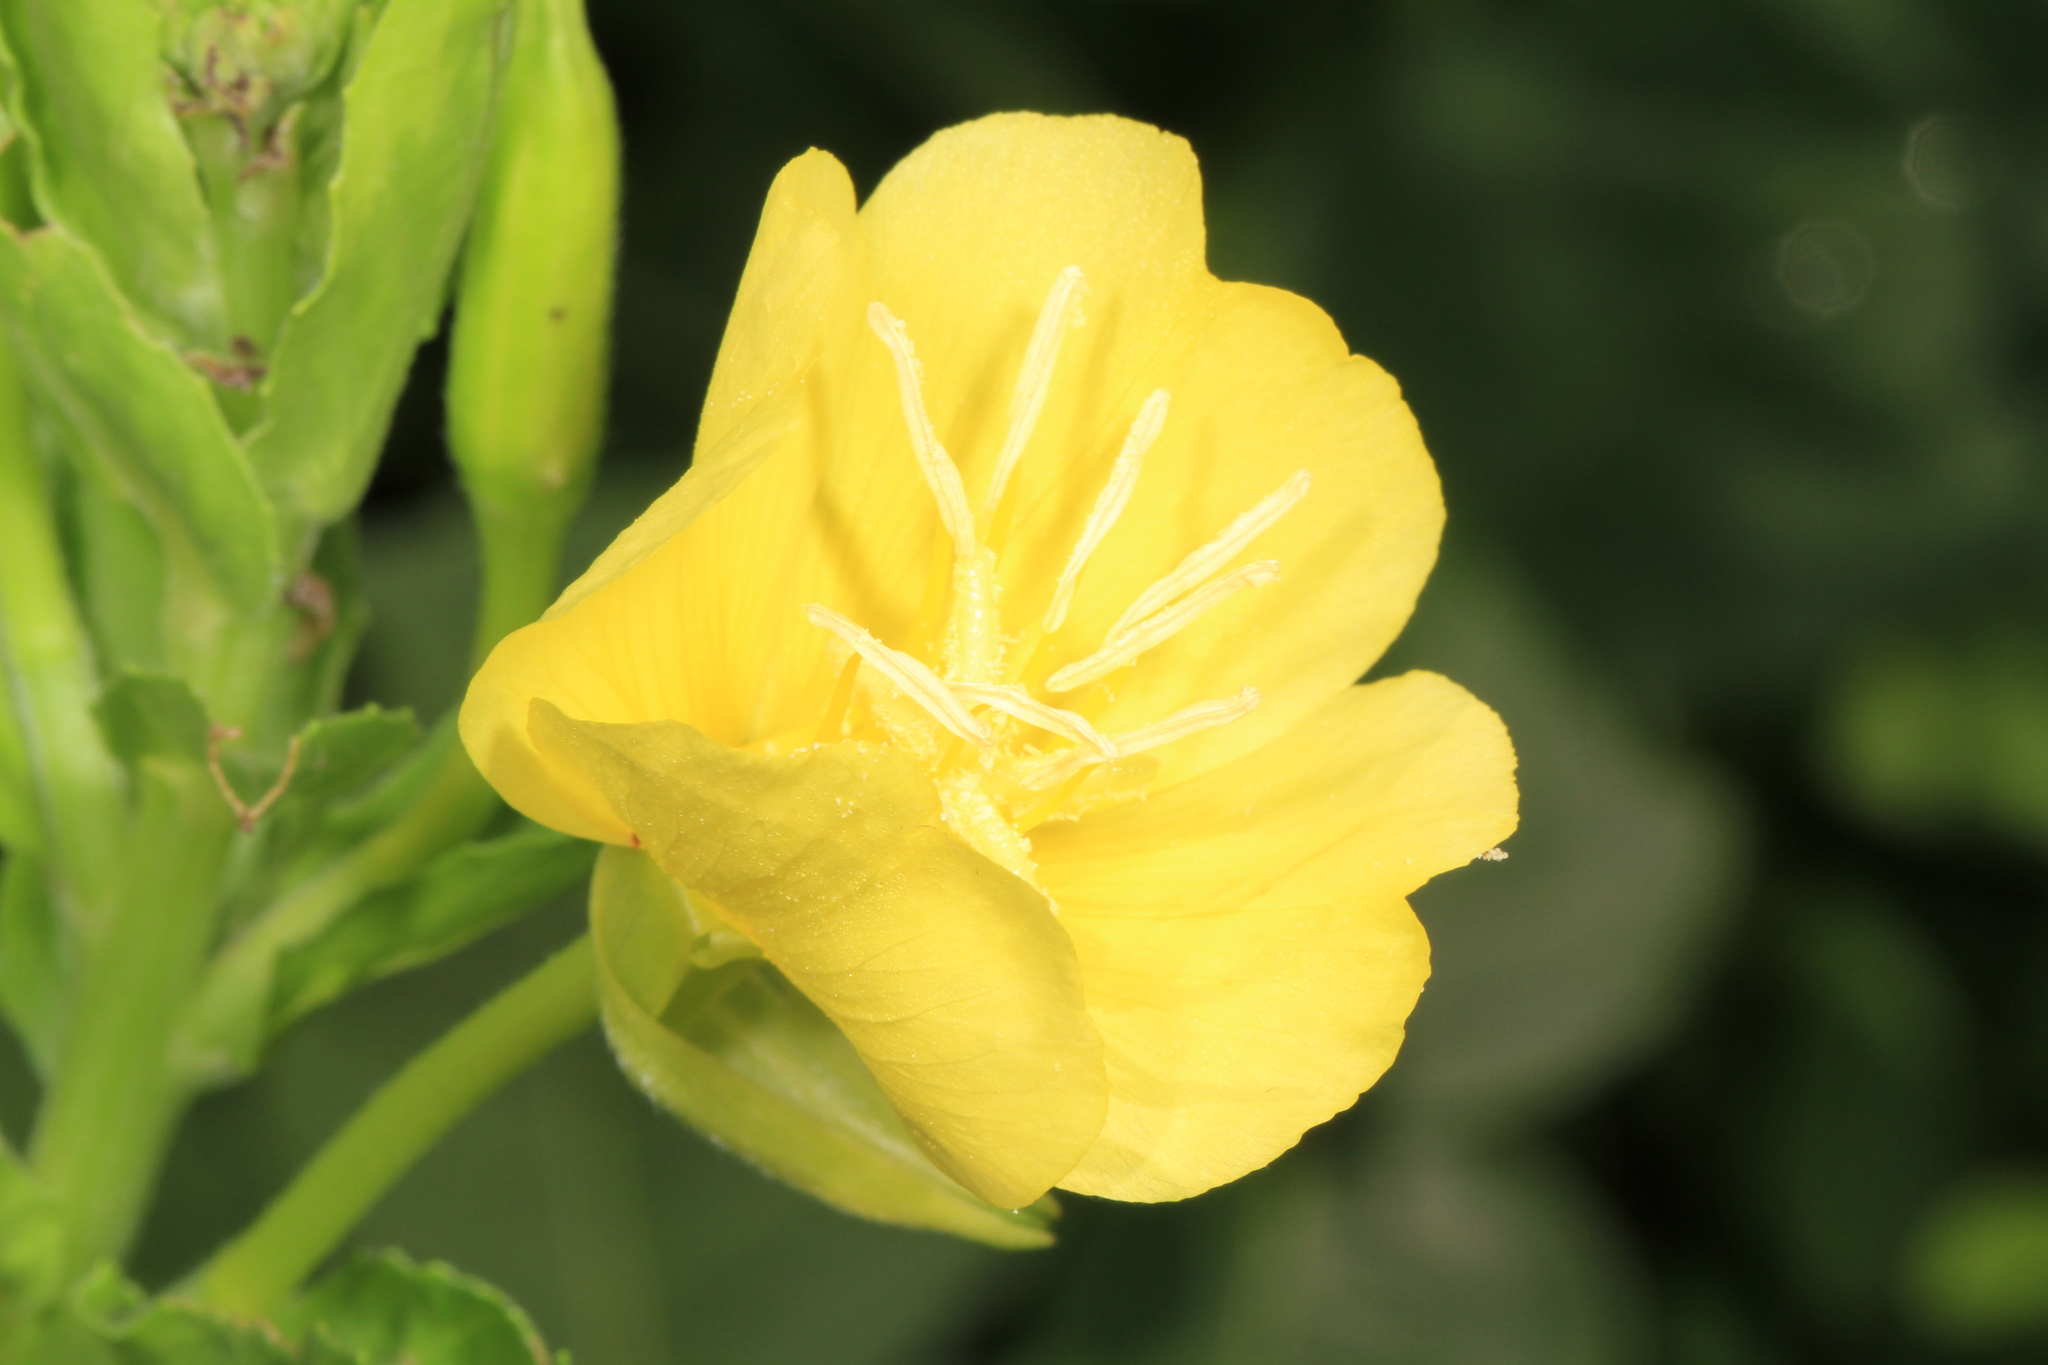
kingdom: Plantae
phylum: Tracheophyta
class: Magnoliopsida
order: Myrtales
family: Onagraceae
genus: Oenothera
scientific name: Oenothera biennis
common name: Common evening-primrose
